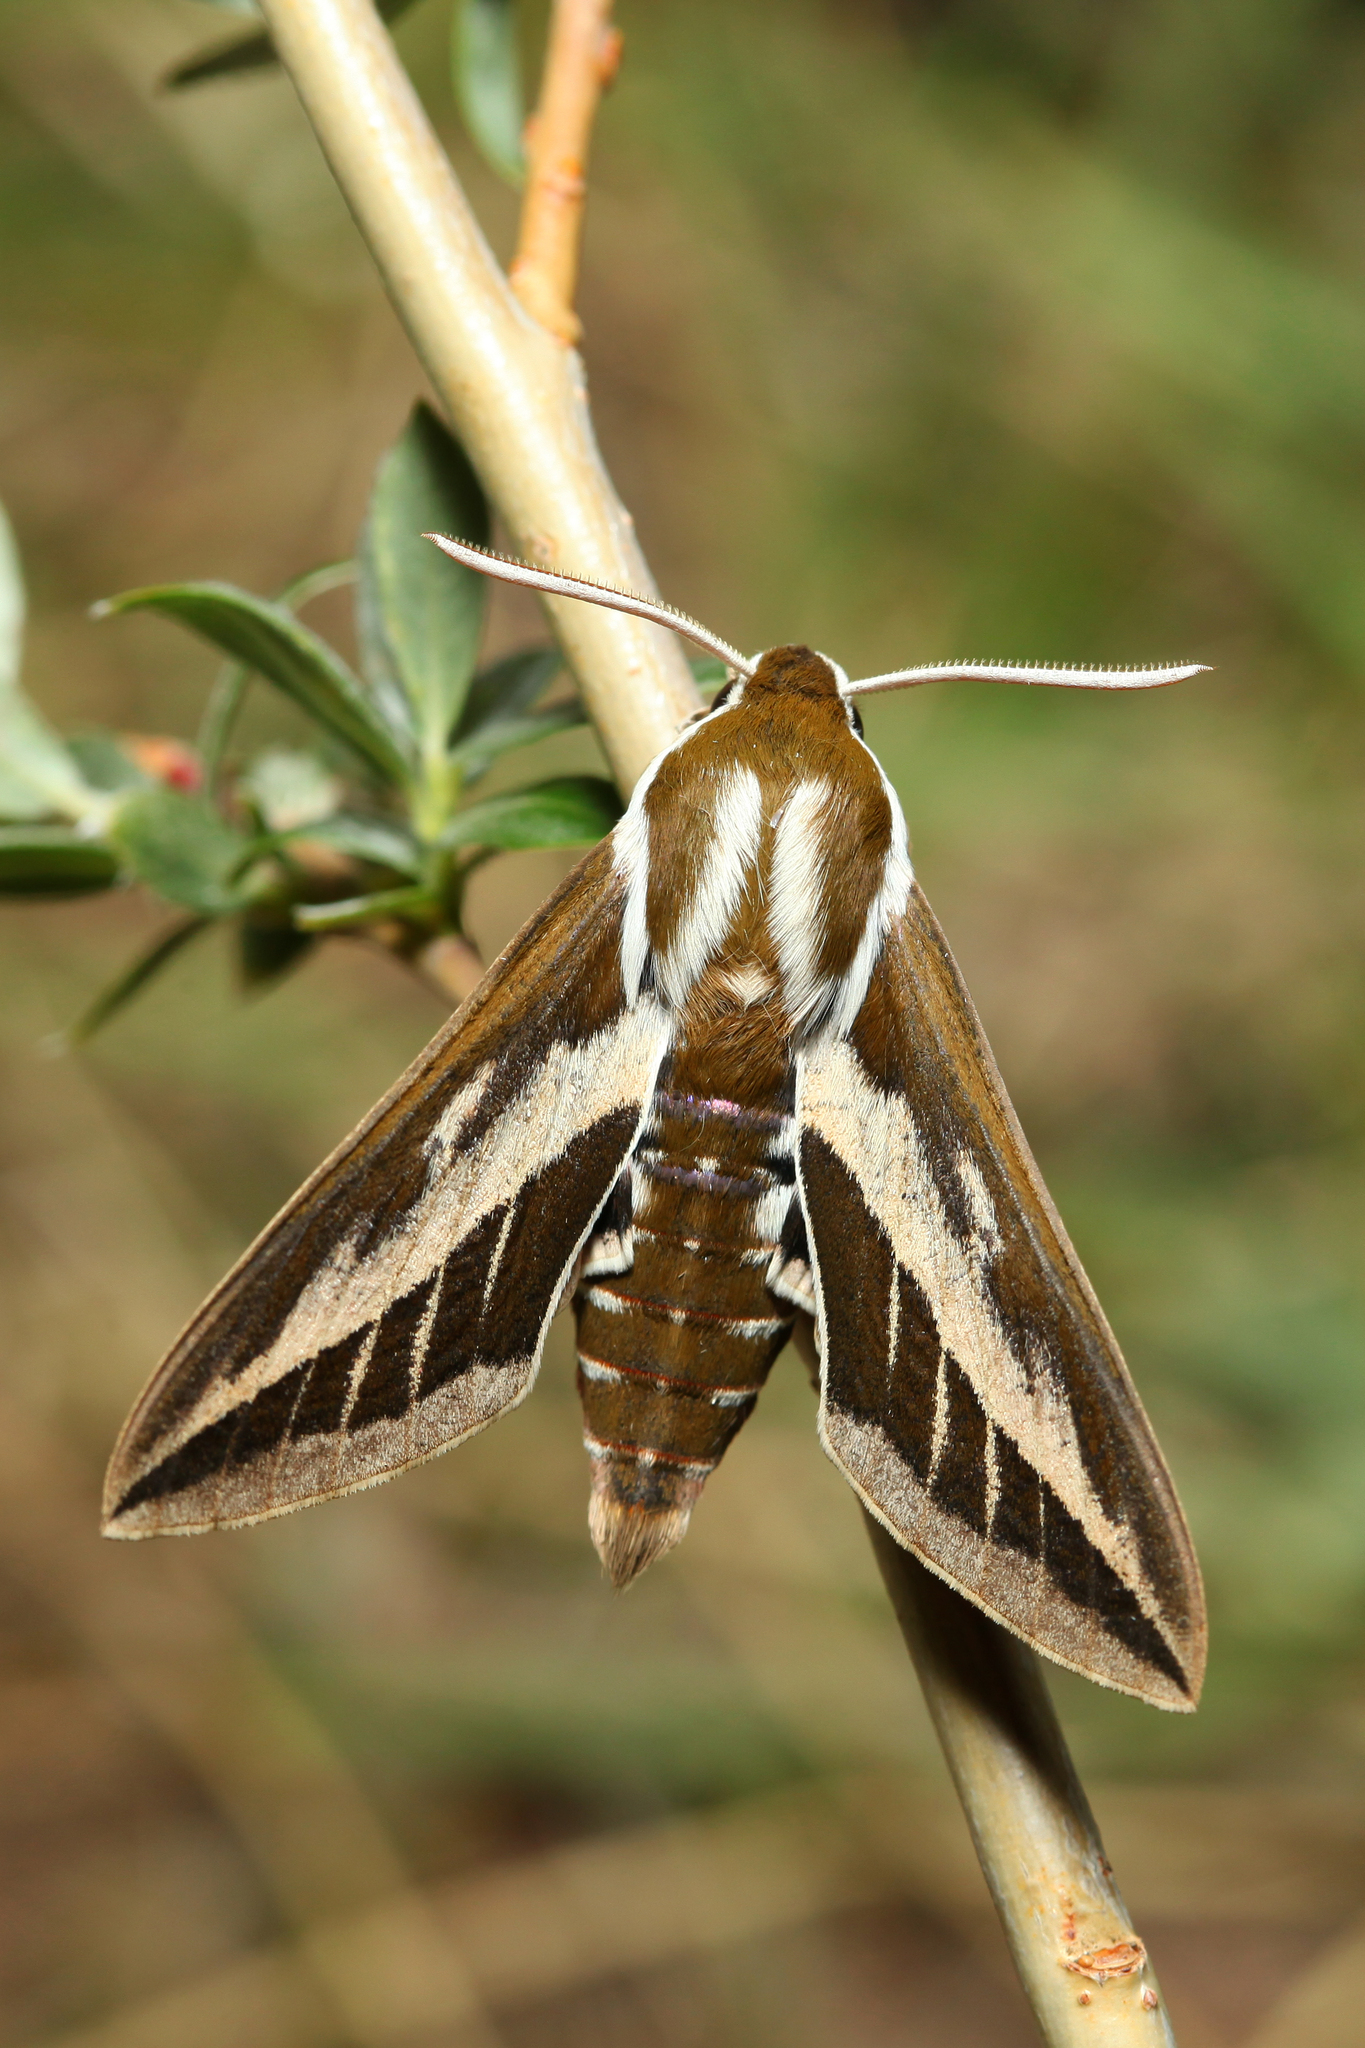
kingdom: Animalia
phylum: Arthropoda
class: Insecta
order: Lepidoptera
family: Sphingidae
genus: Hyles
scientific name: Hyles costata
